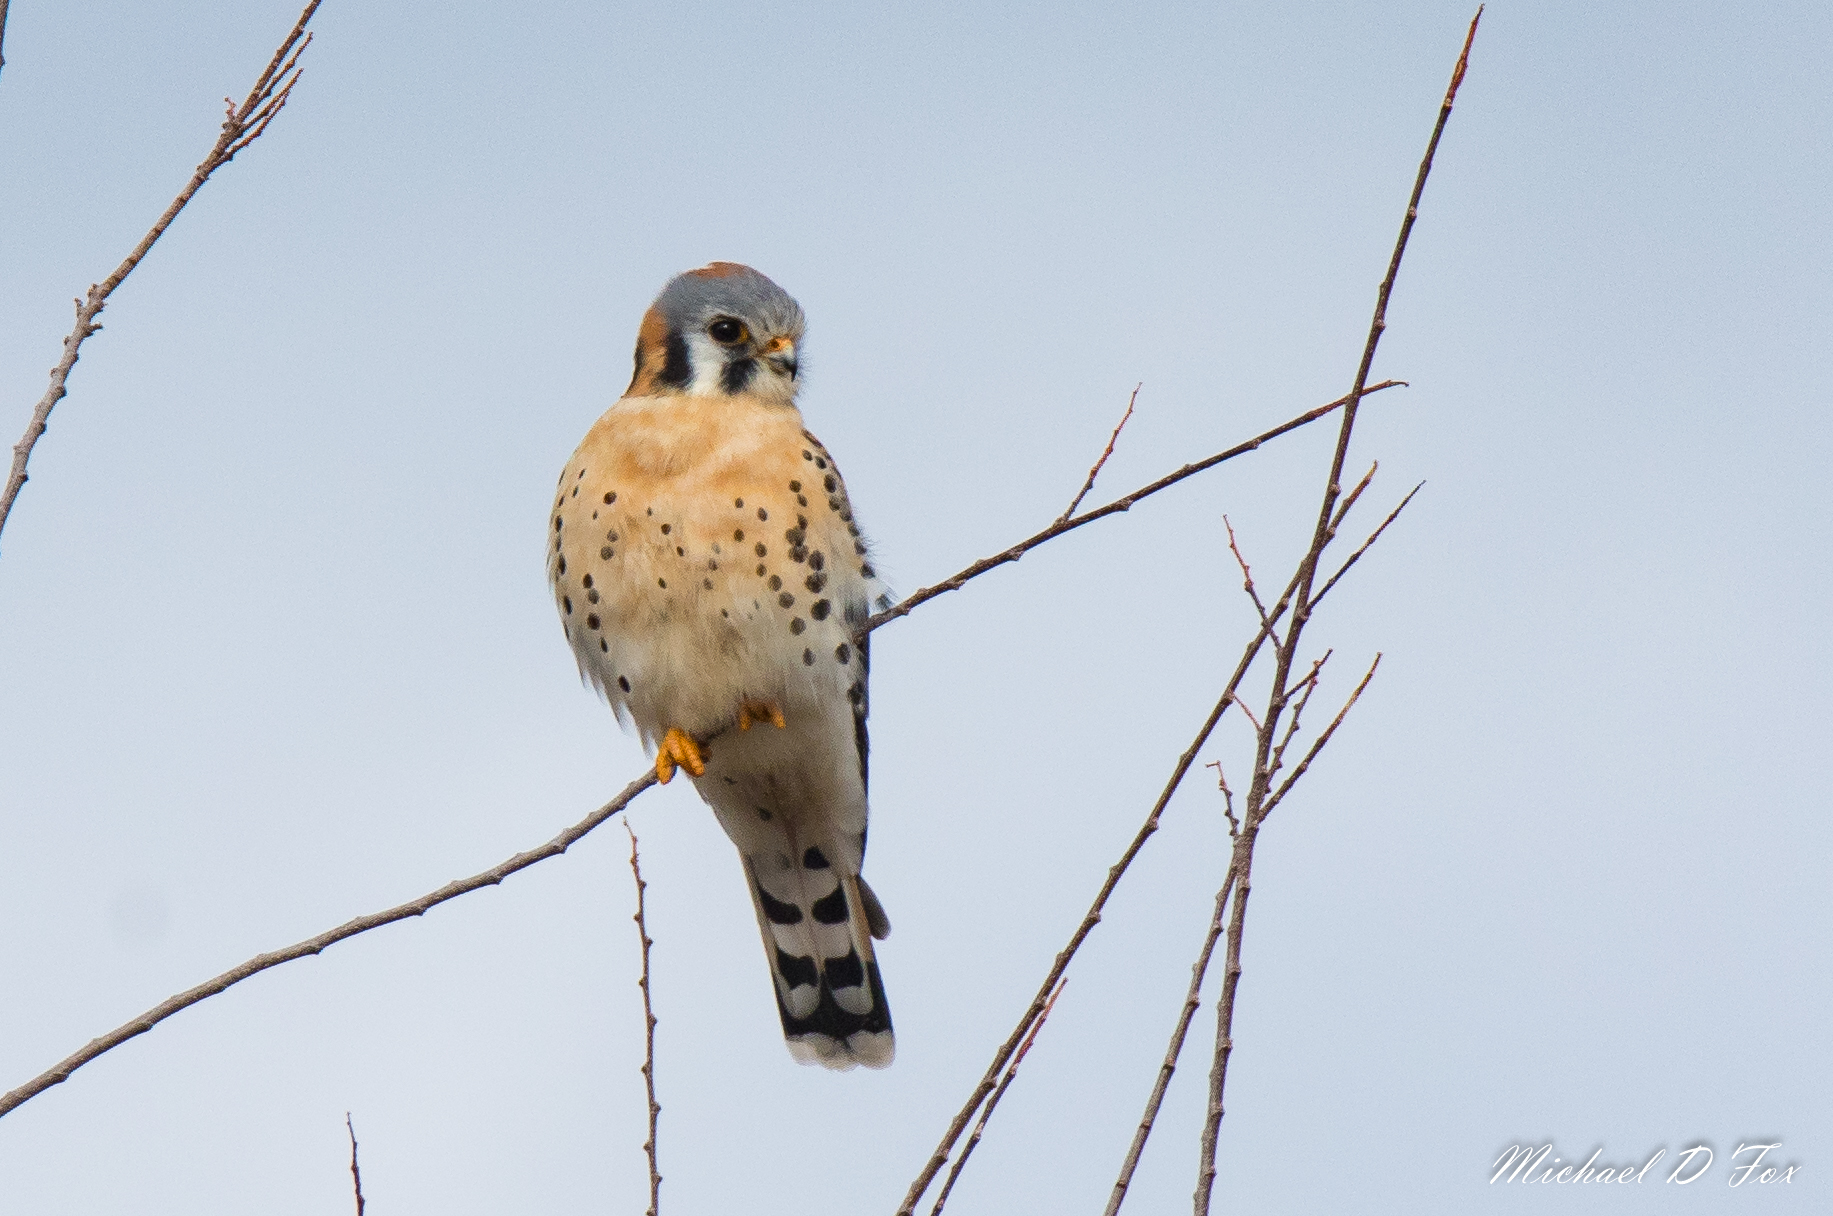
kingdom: Animalia
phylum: Chordata
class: Aves
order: Falconiformes
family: Falconidae
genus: Falco
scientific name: Falco sparverius
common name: American kestrel
